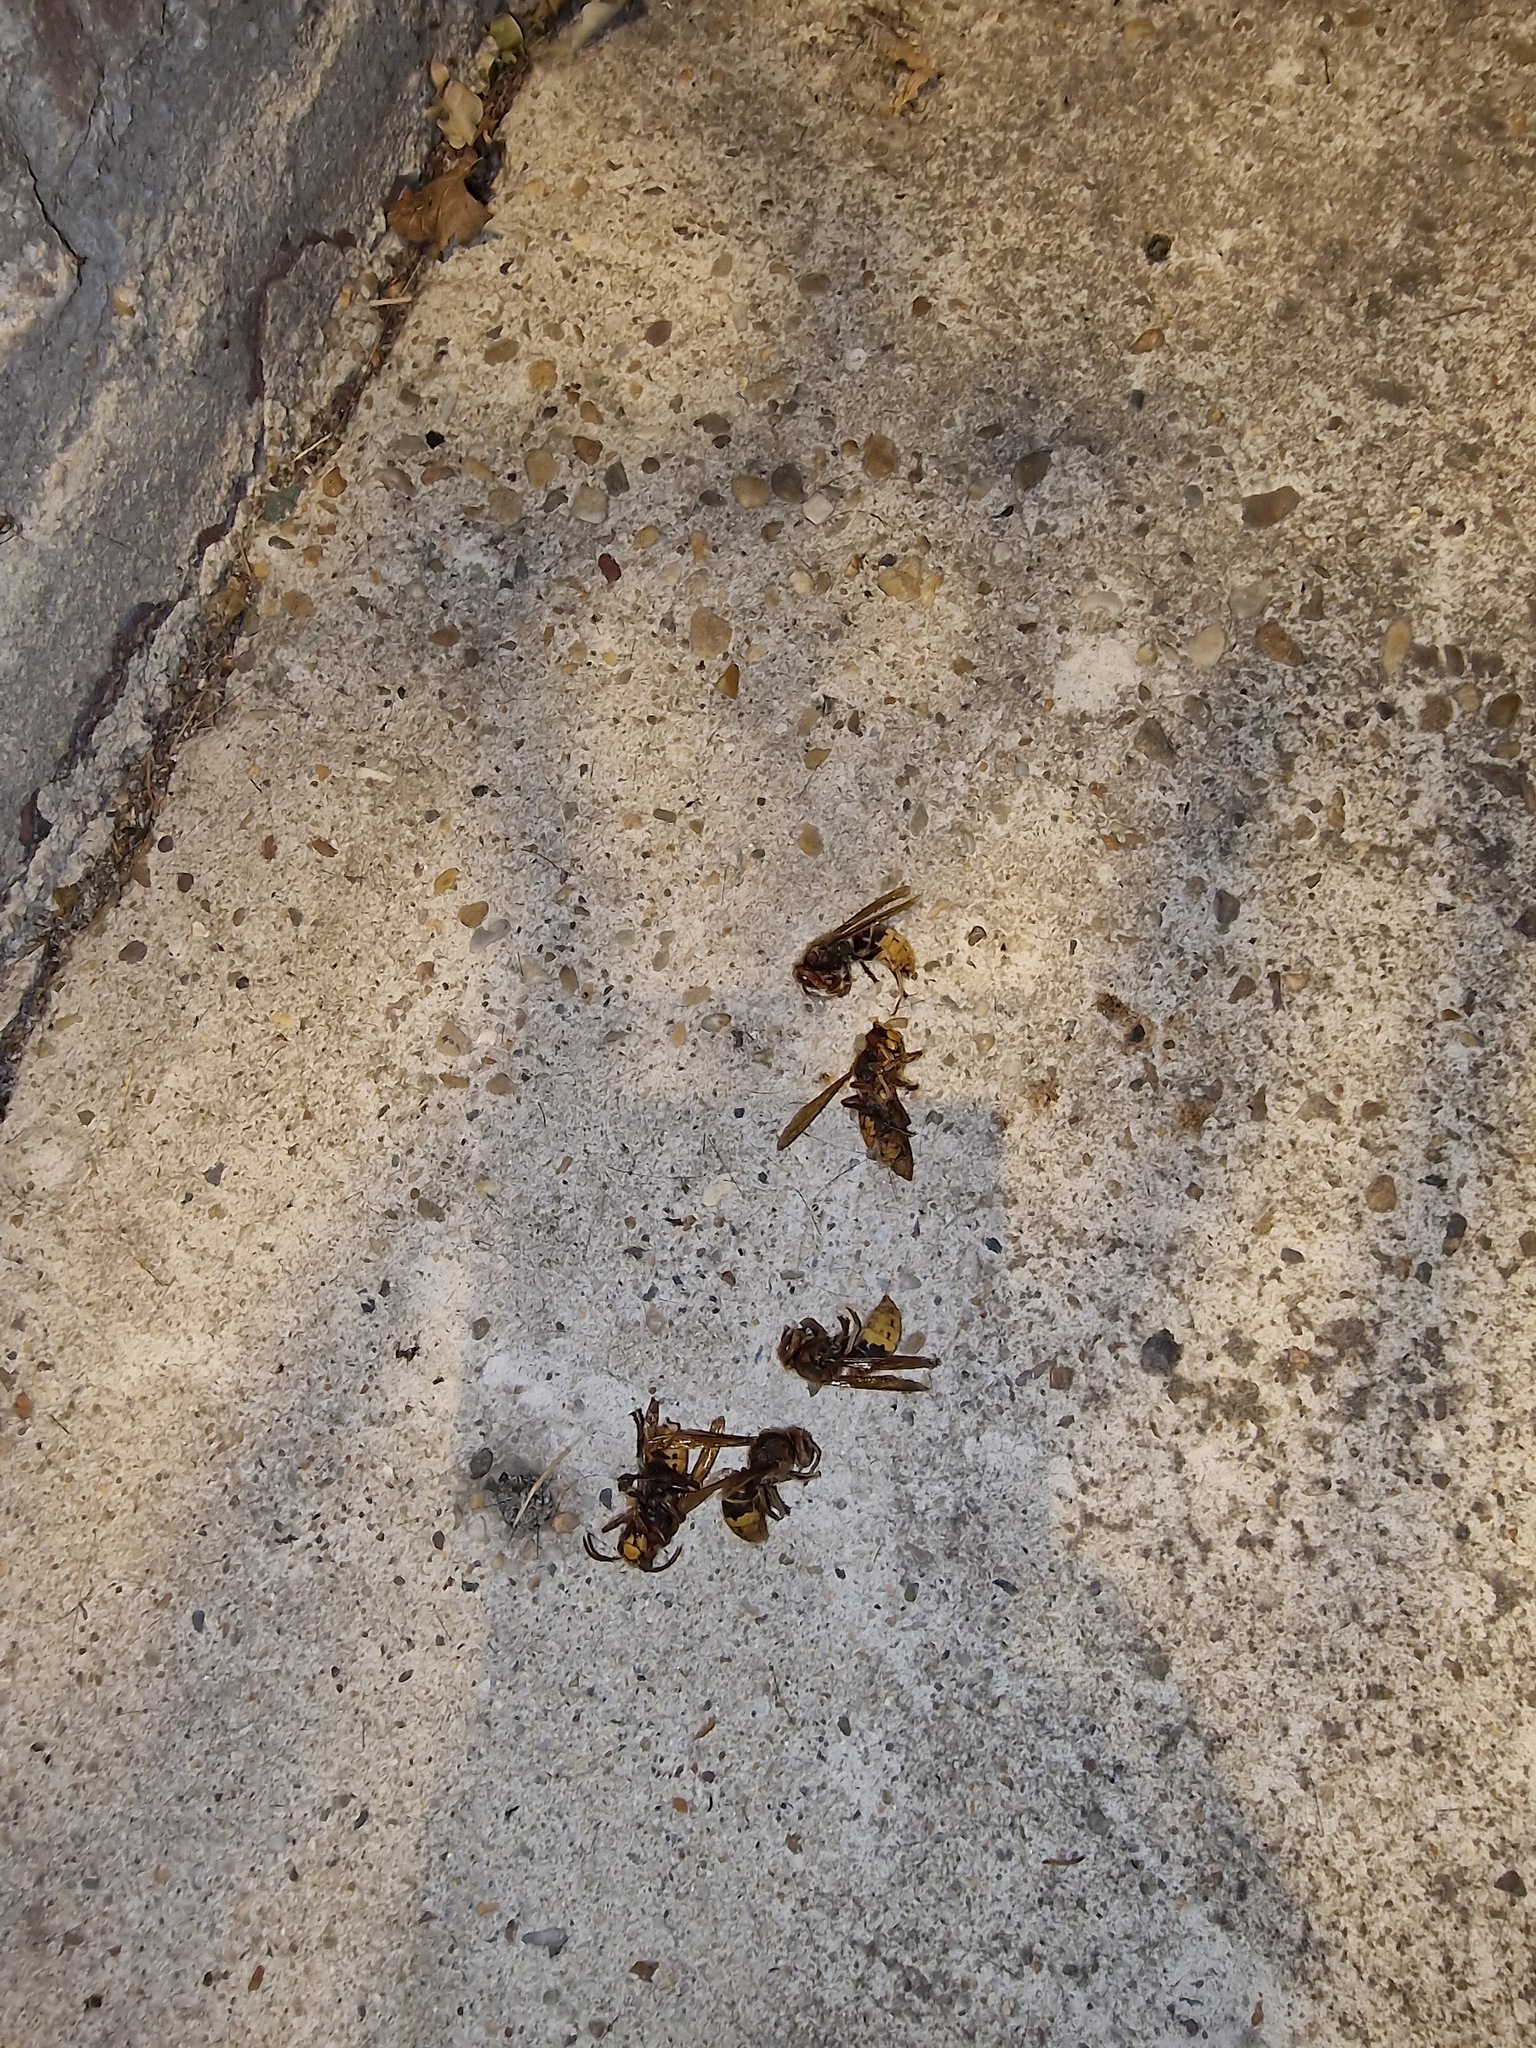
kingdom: Animalia
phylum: Arthropoda
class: Insecta
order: Hymenoptera
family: Vespidae
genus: Vespa
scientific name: Vespa crabro
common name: Hornet
